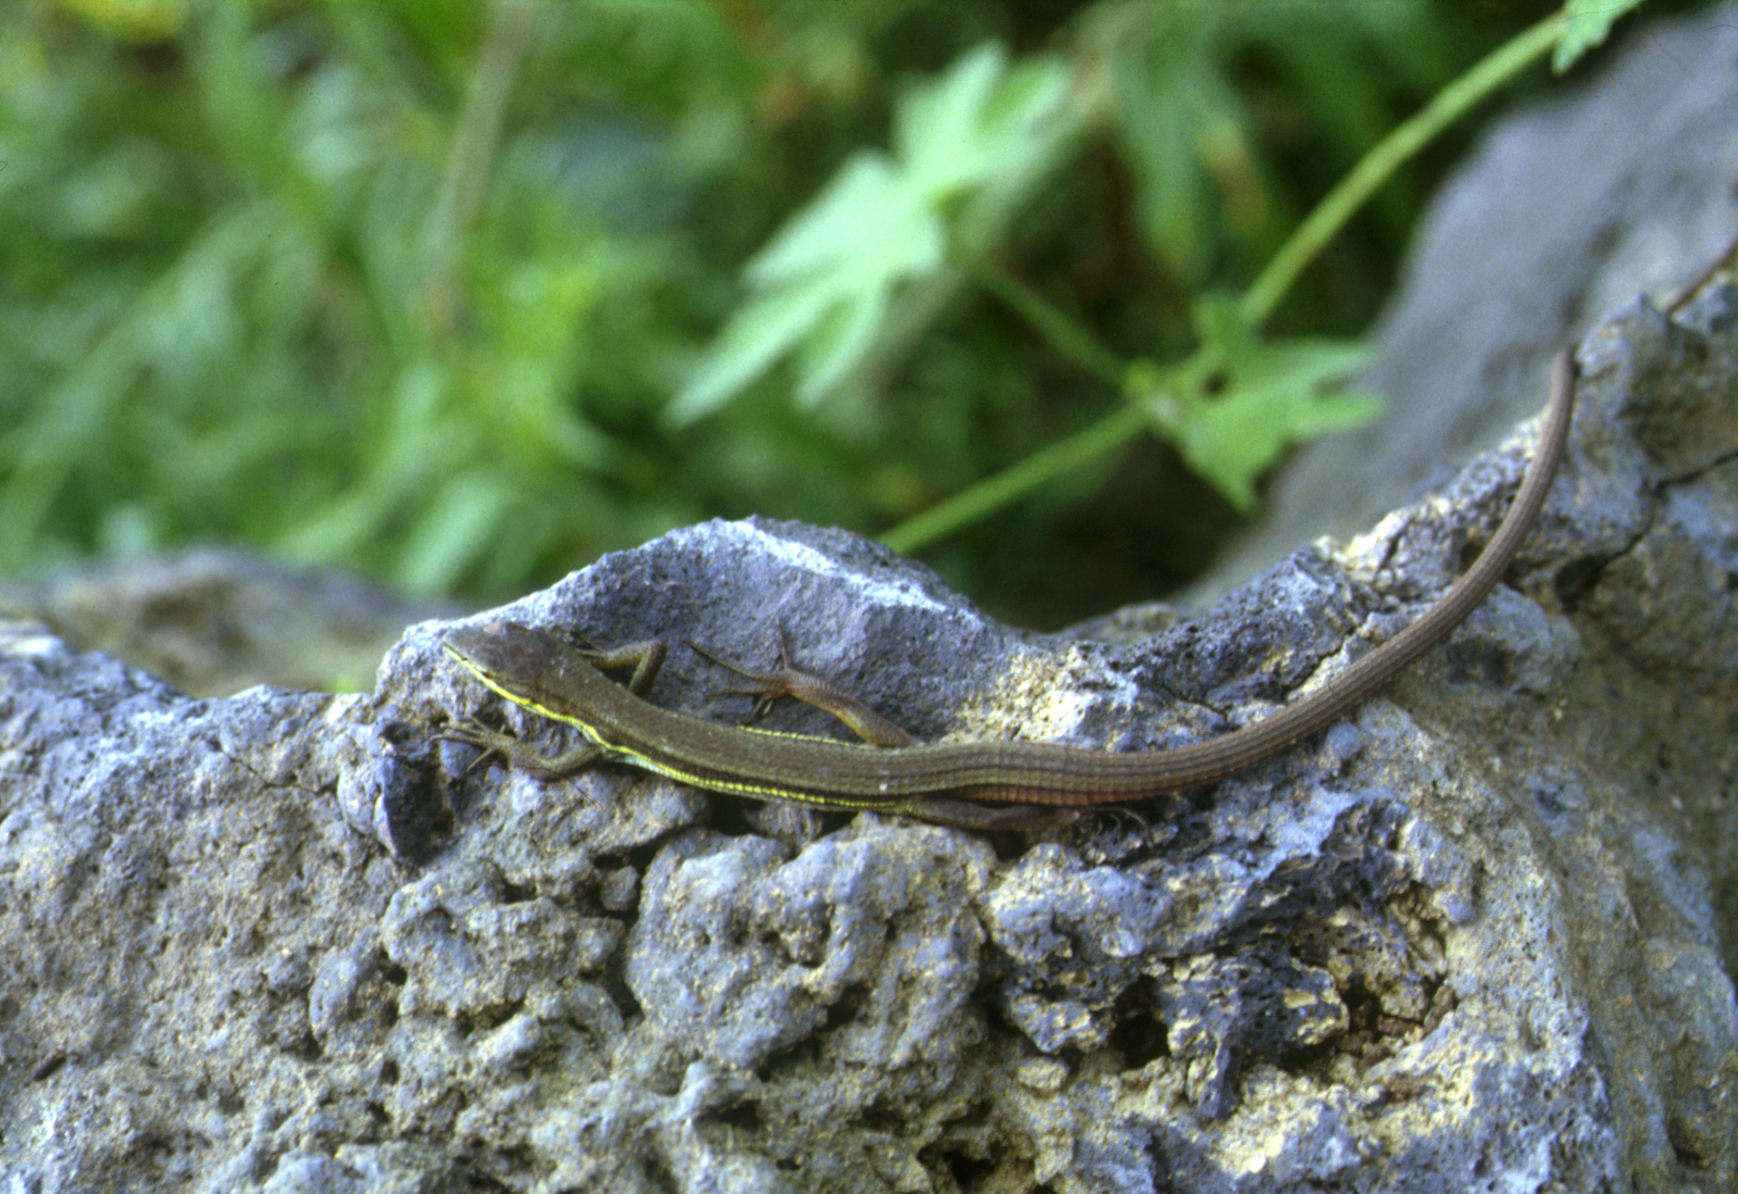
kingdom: Animalia
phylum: Chordata
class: Squamata
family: Lacertidae
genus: Takydromus
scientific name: Takydromus wolteri
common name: Mountain grass lizard
